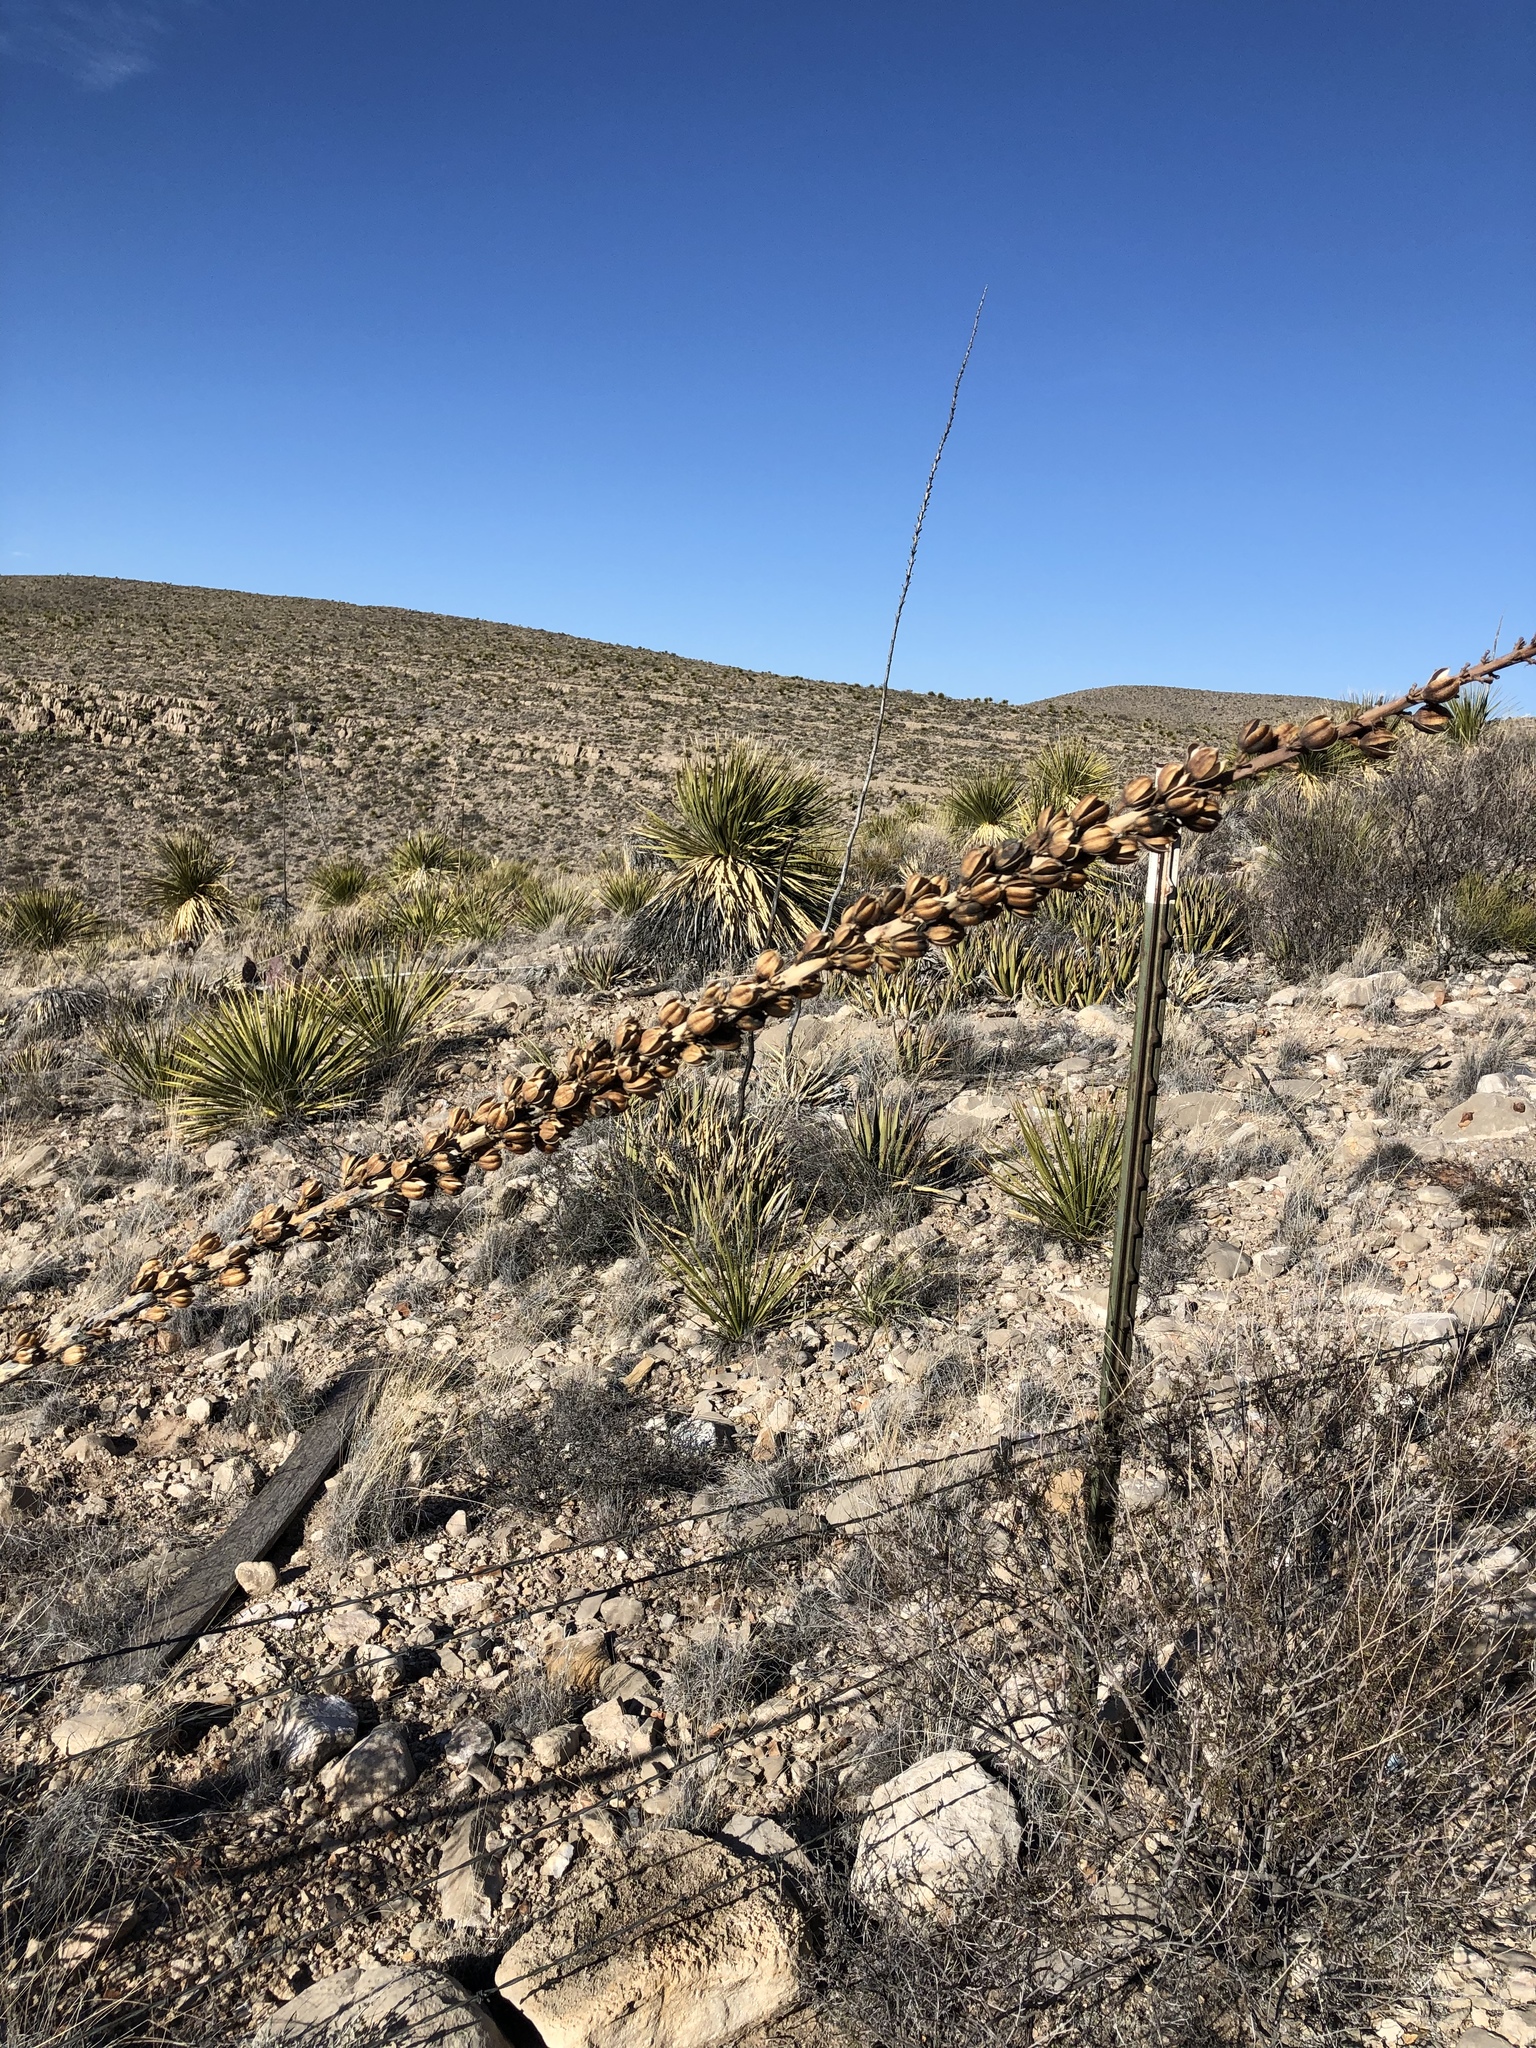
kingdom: Plantae
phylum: Tracheophyta
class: Liliopsida
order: Asparagales
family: Asparagaceae
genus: Agave
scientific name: Agave lechuguilla
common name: Lecheguilla agave
